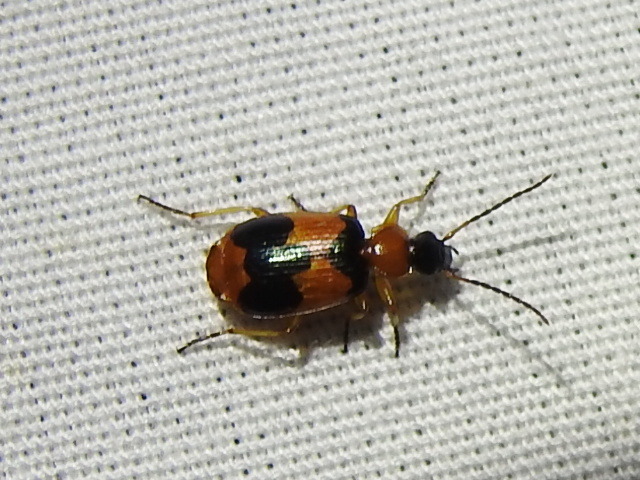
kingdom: Animalia
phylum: Arthropoda
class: Insecta
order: Coleoptera
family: Carabidae
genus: Lebia
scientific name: Lebia pulchella
